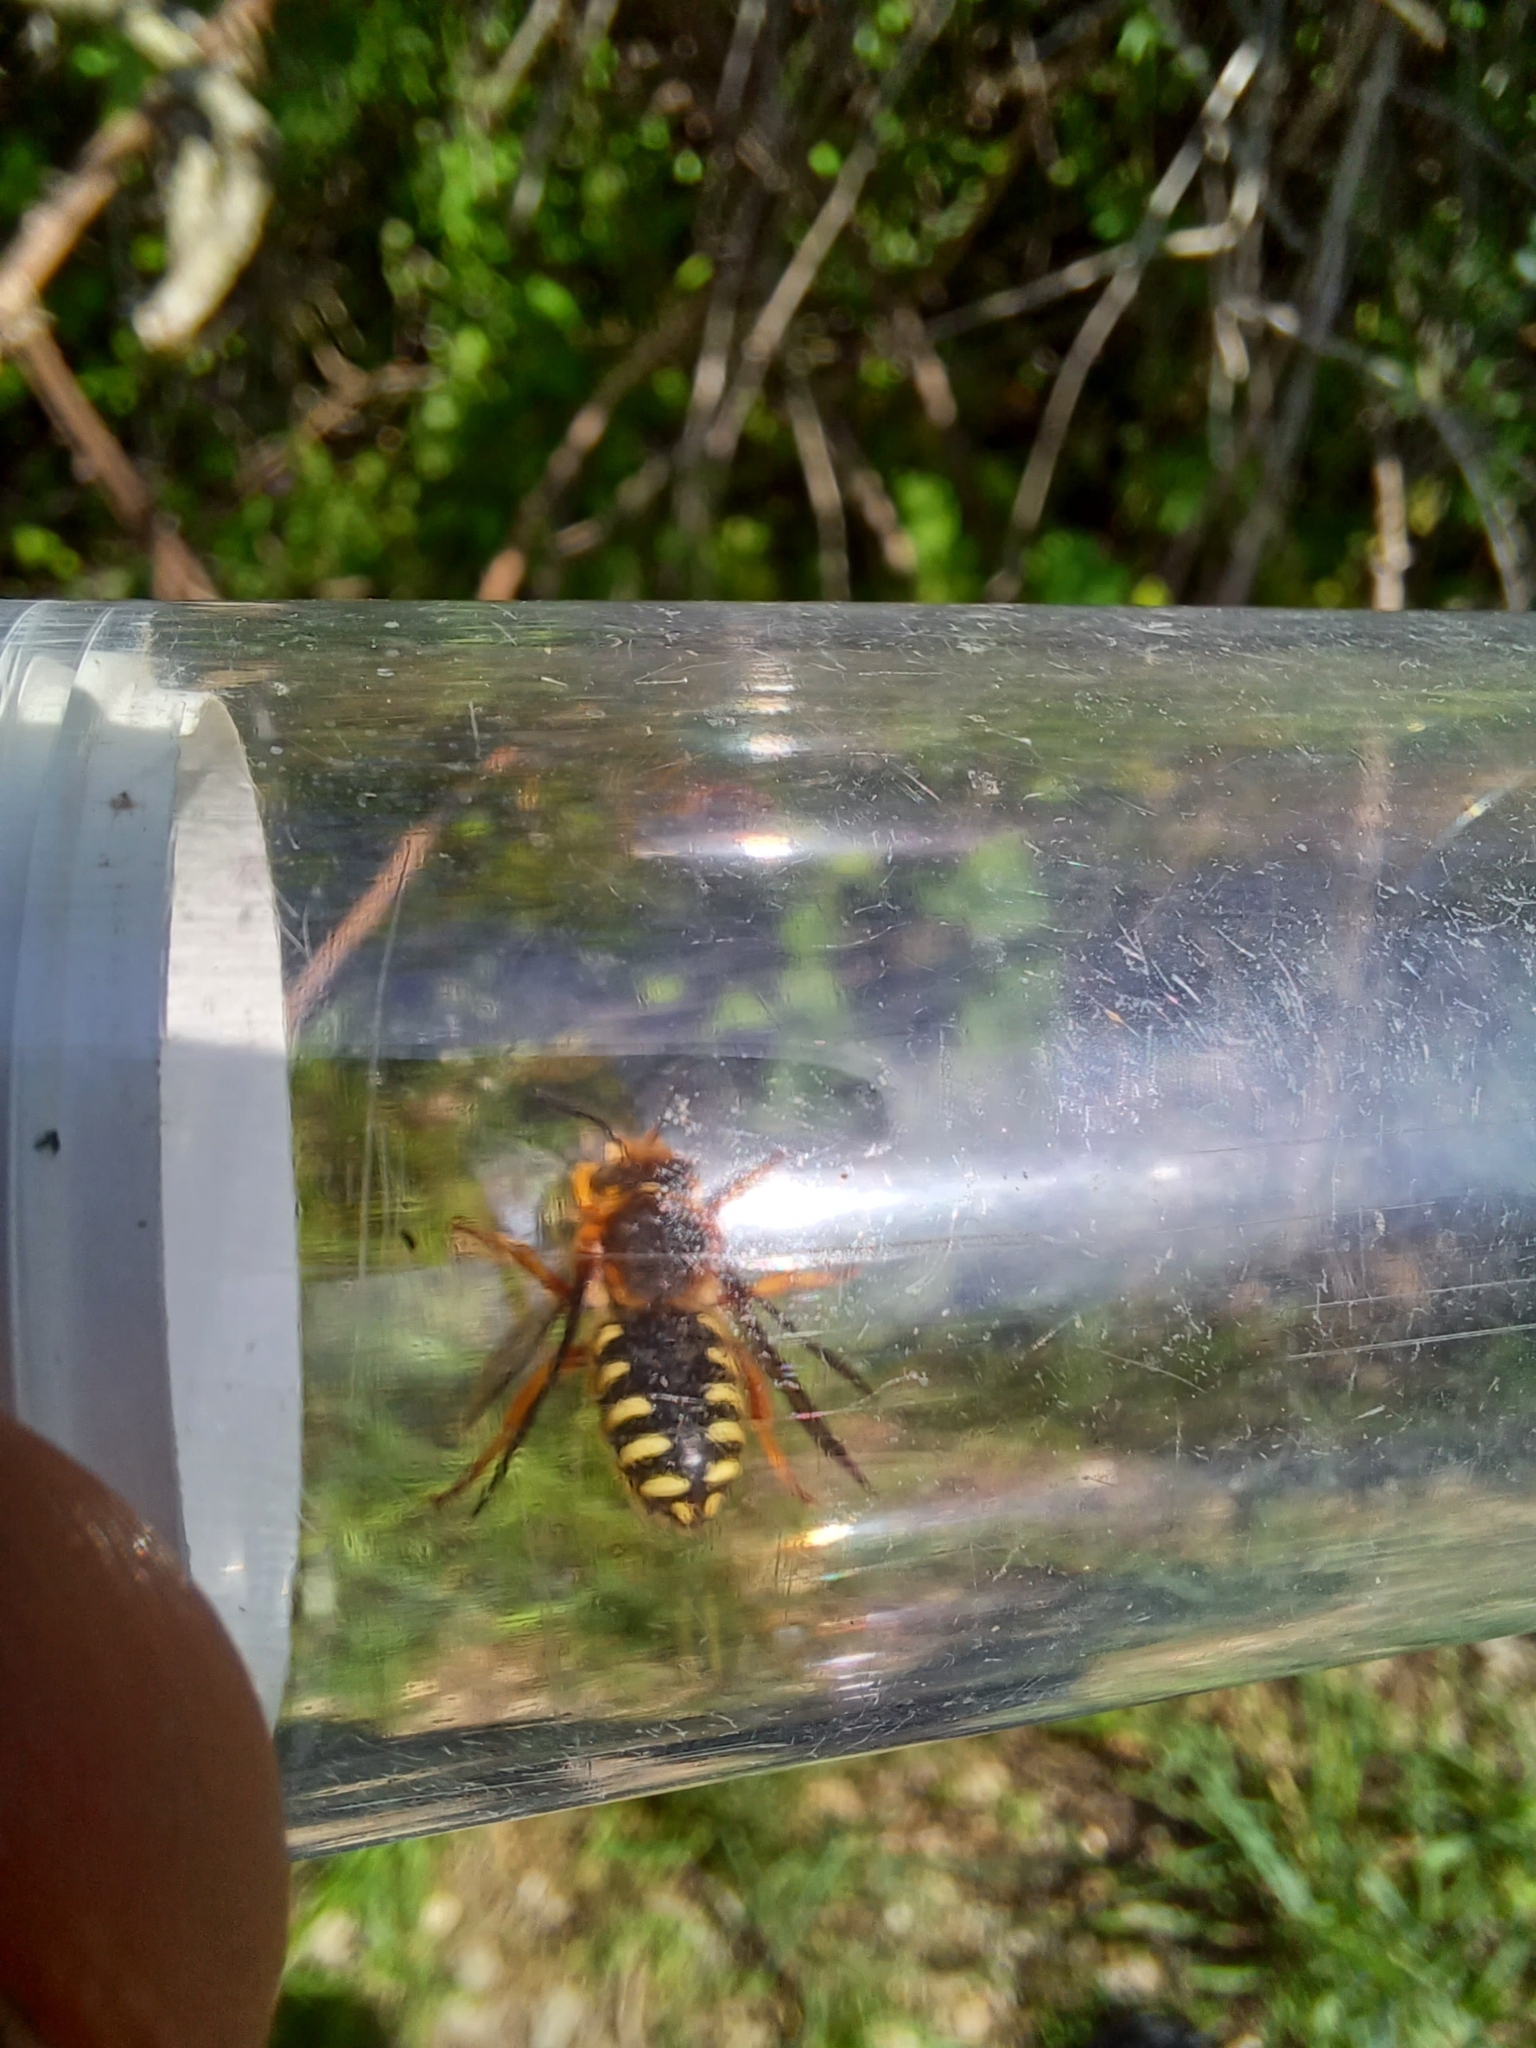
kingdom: Animalia
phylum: Arthropoda
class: Insecta
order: Hymenoptera
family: Megachilidae
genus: Rhodanthidium
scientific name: Rhodanthidium septemdentatum
